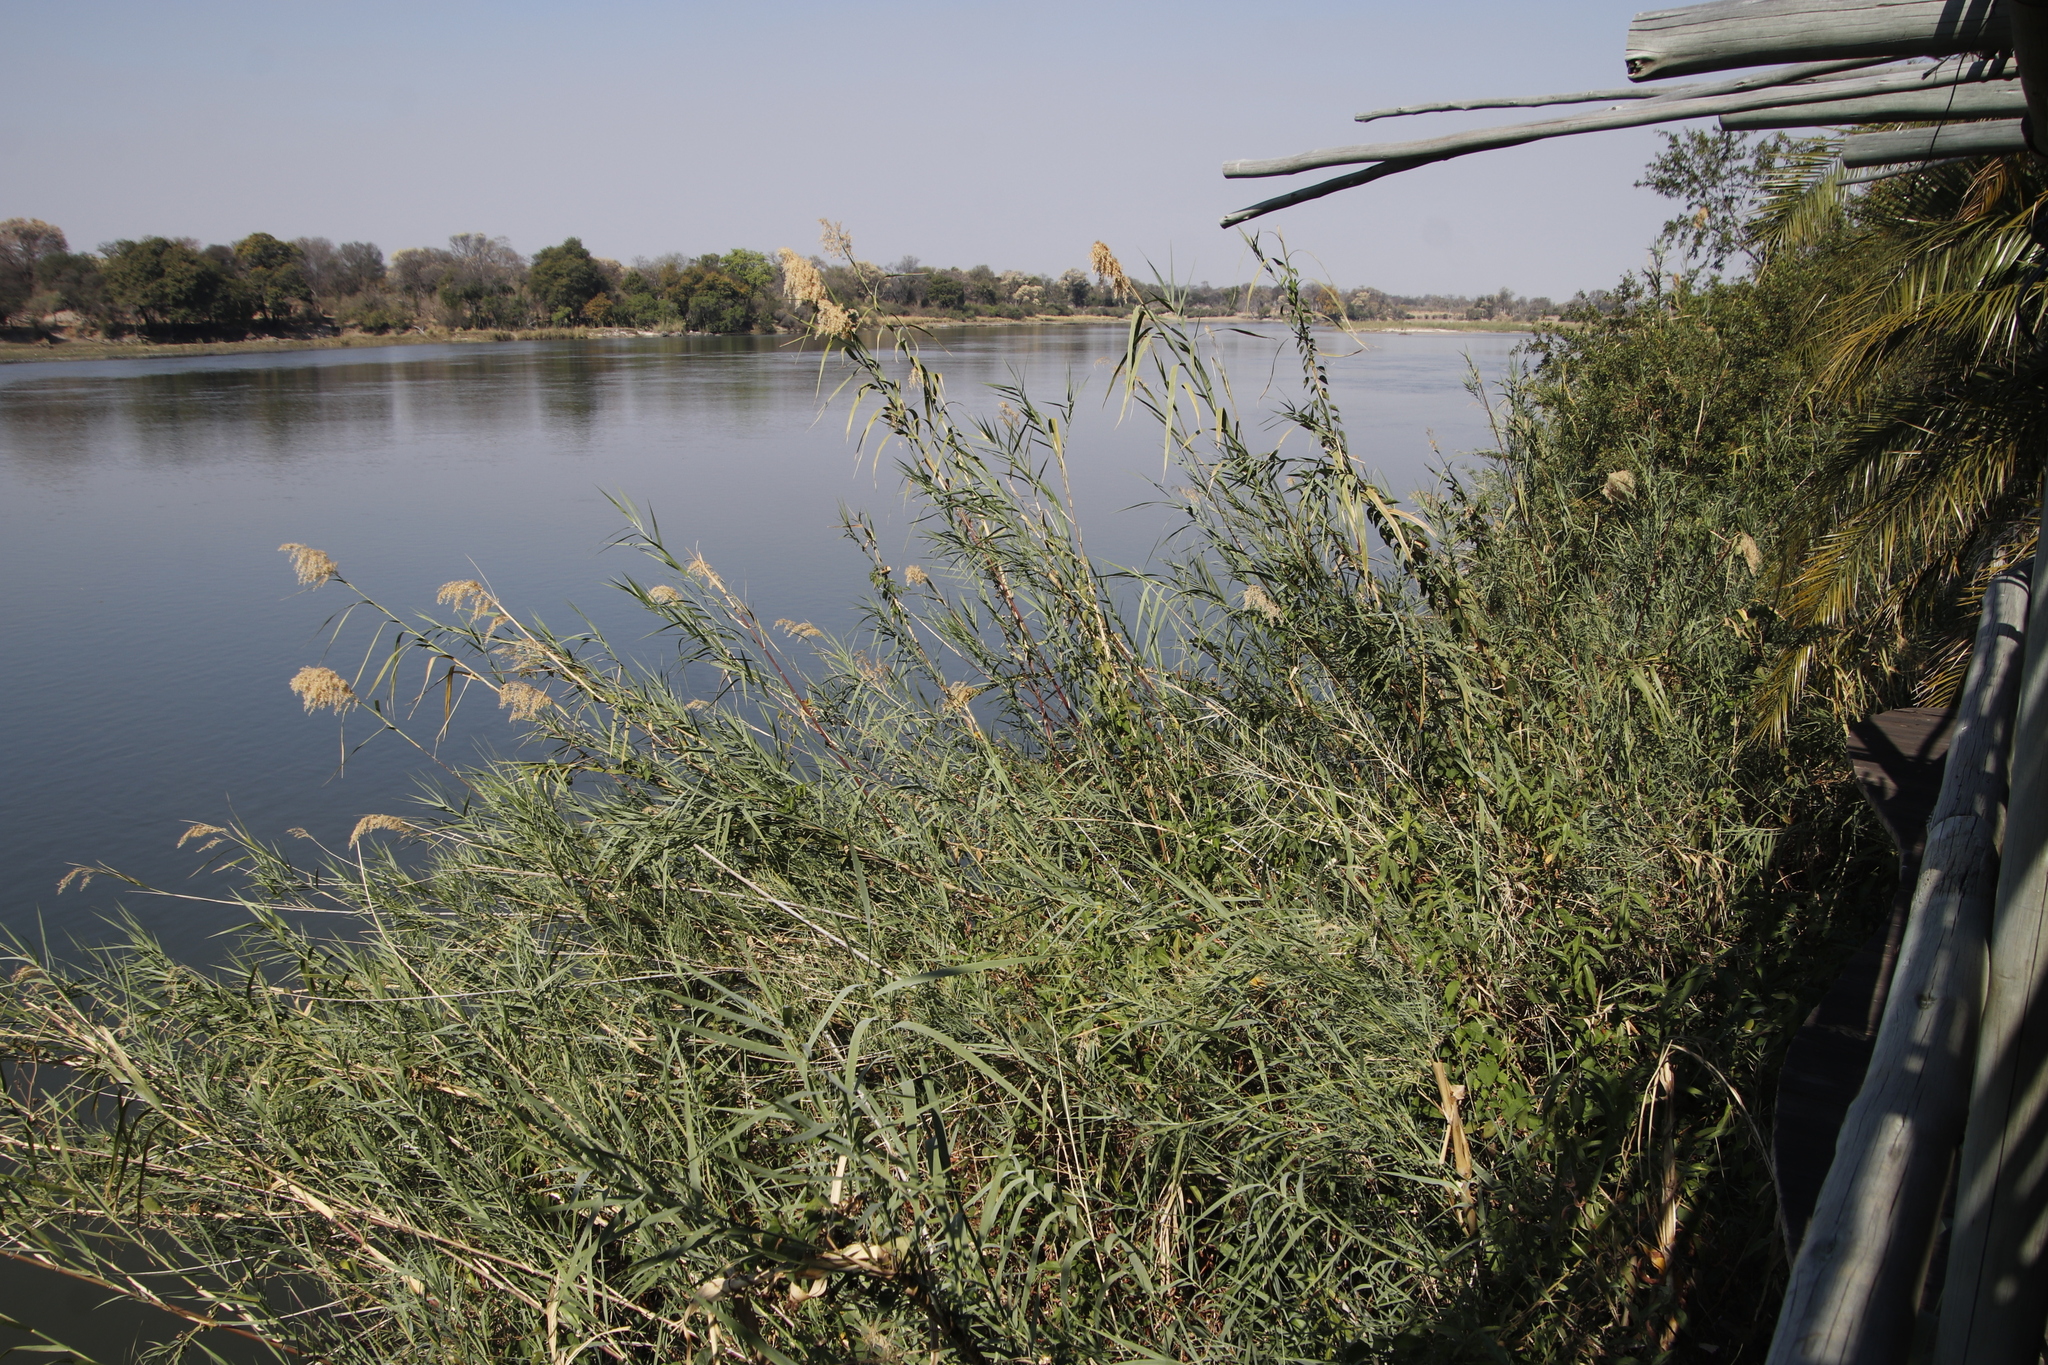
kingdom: Plantae
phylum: Tracheophyta
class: Liliopsida
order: Poales
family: Poaceae
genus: Phragmites
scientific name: Phragmites australis
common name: Common reed
